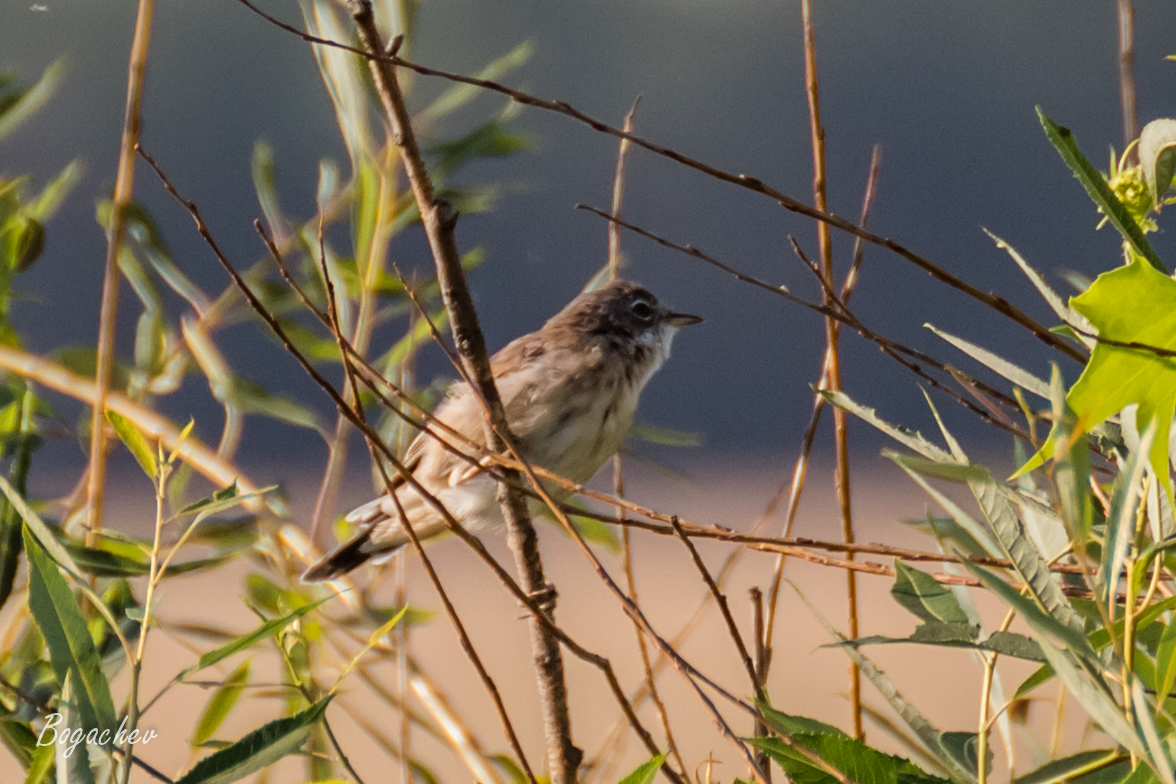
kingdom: Animalia
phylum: Chordata
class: Aves
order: Passeriformes
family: Sylviidae
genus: Sylvia
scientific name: Sylvia communis
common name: Common whitethroat
